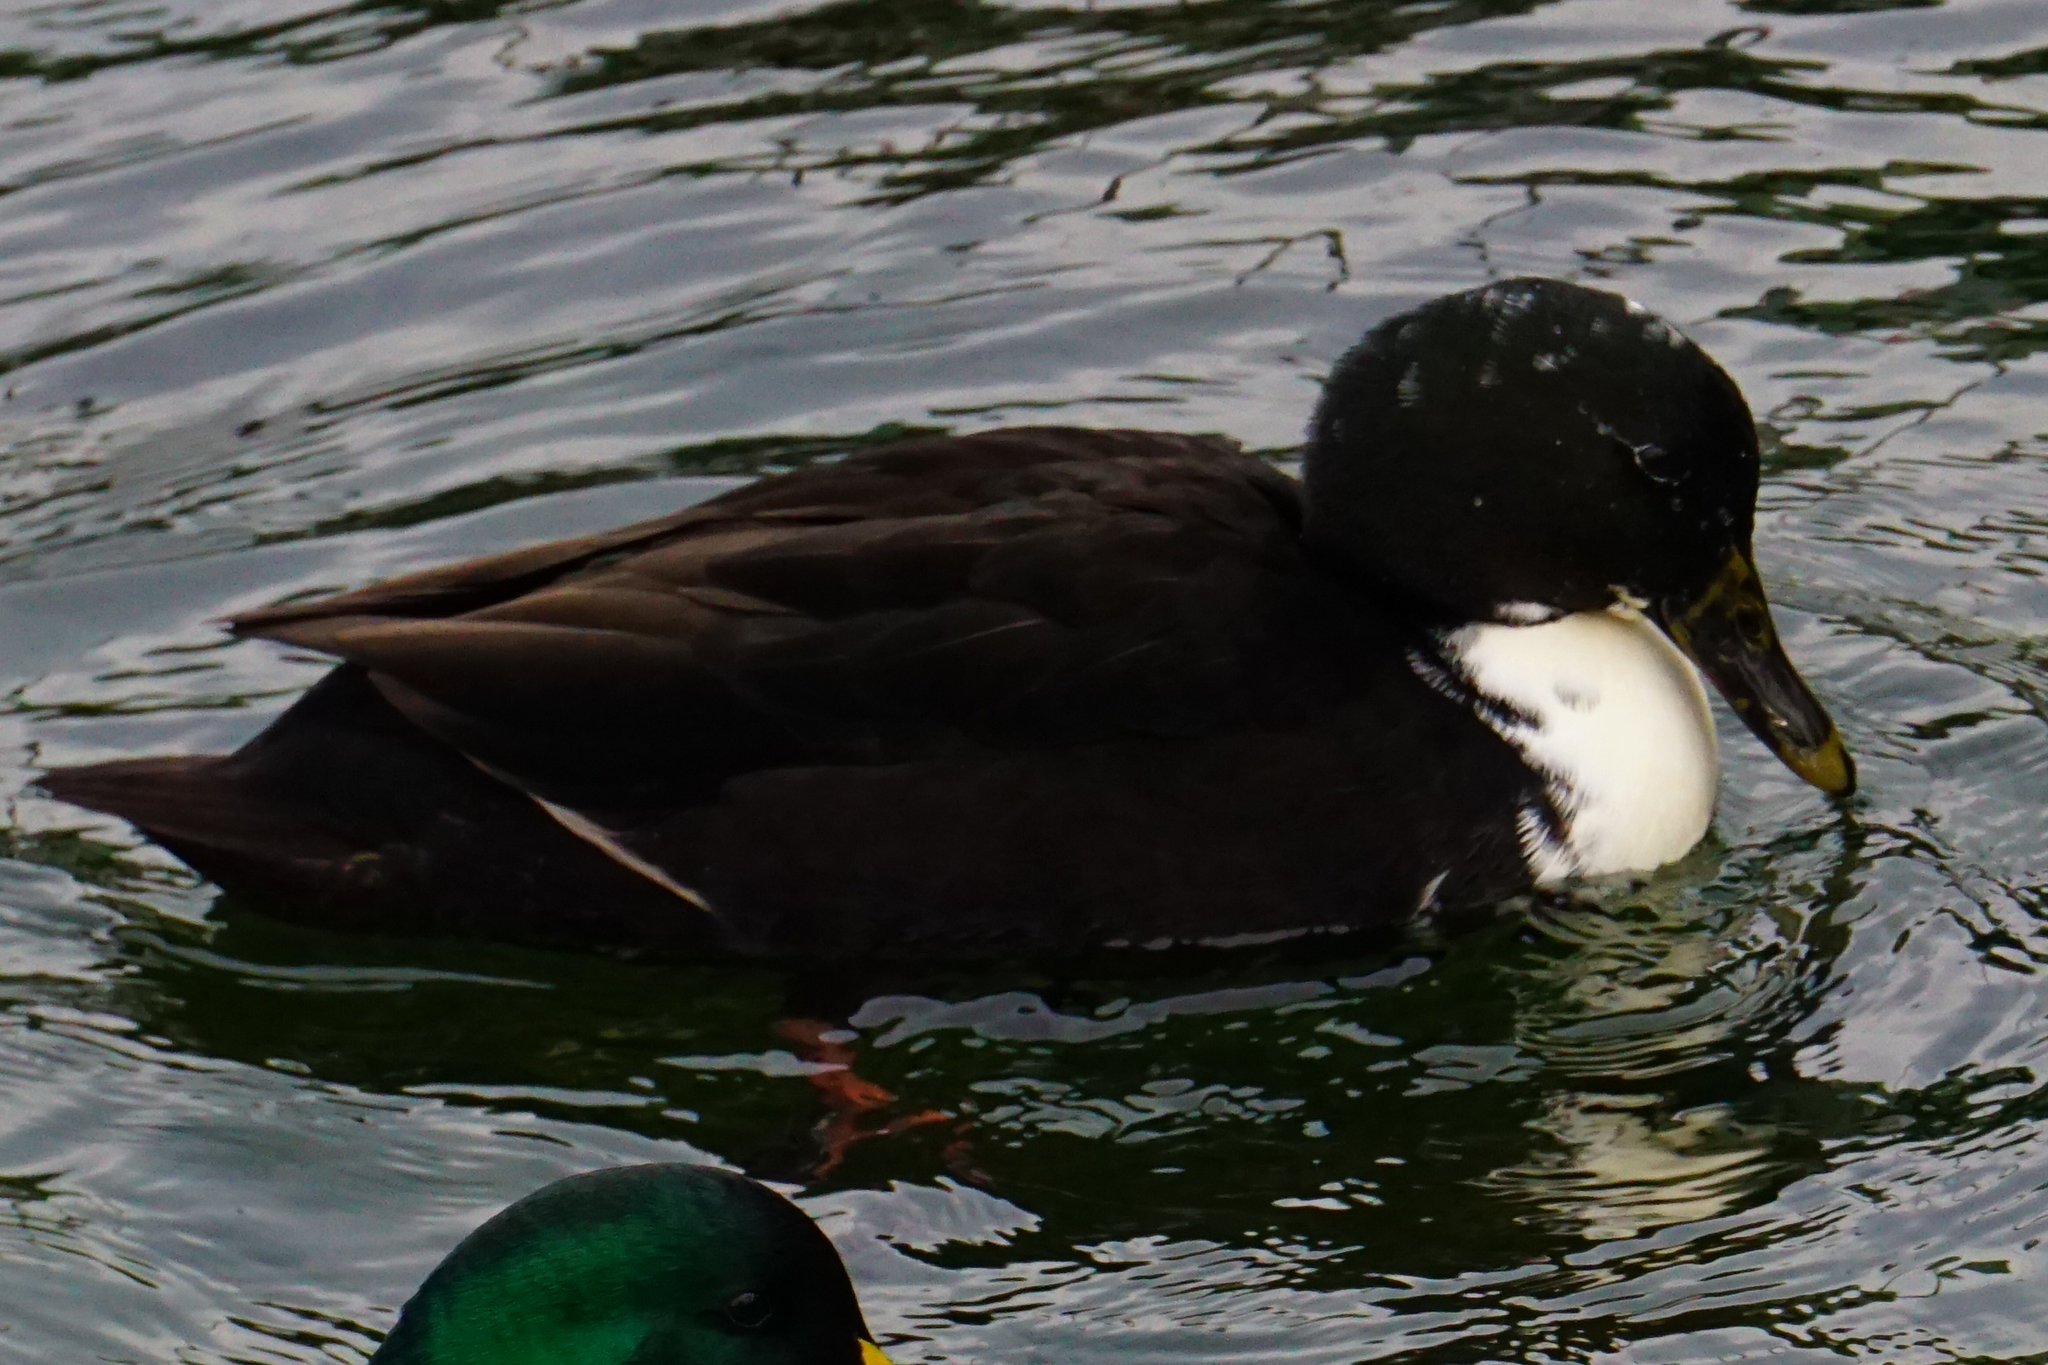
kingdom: Animalia
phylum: Chordata
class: Aves
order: Anseriformes
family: Anatidae
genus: Anas
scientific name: Anas platyrhynchos
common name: Mallard
